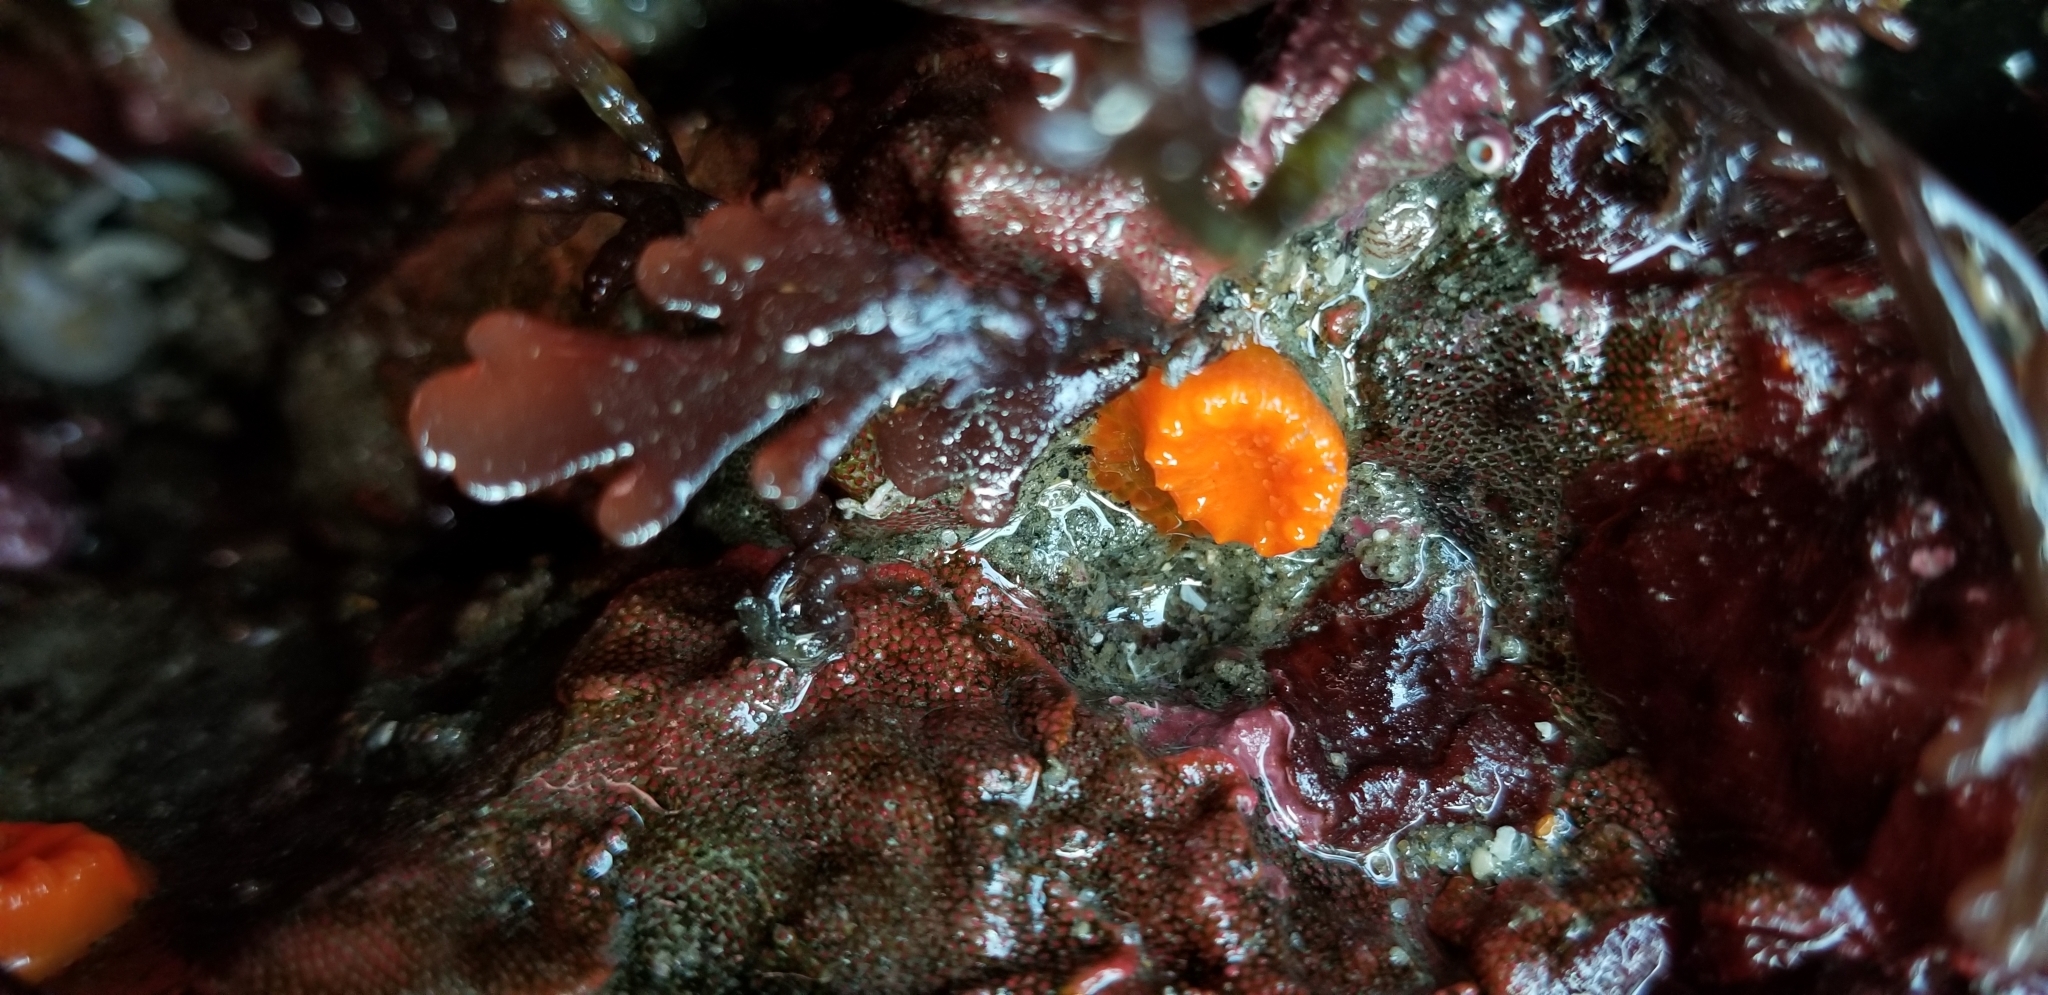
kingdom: Animalia
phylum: Cnidaria
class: Anthozoa
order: Scleractinia
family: Dendrophylliidae
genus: Balanophyllia
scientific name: Balanophyllia elegans
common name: Orange stony coral
